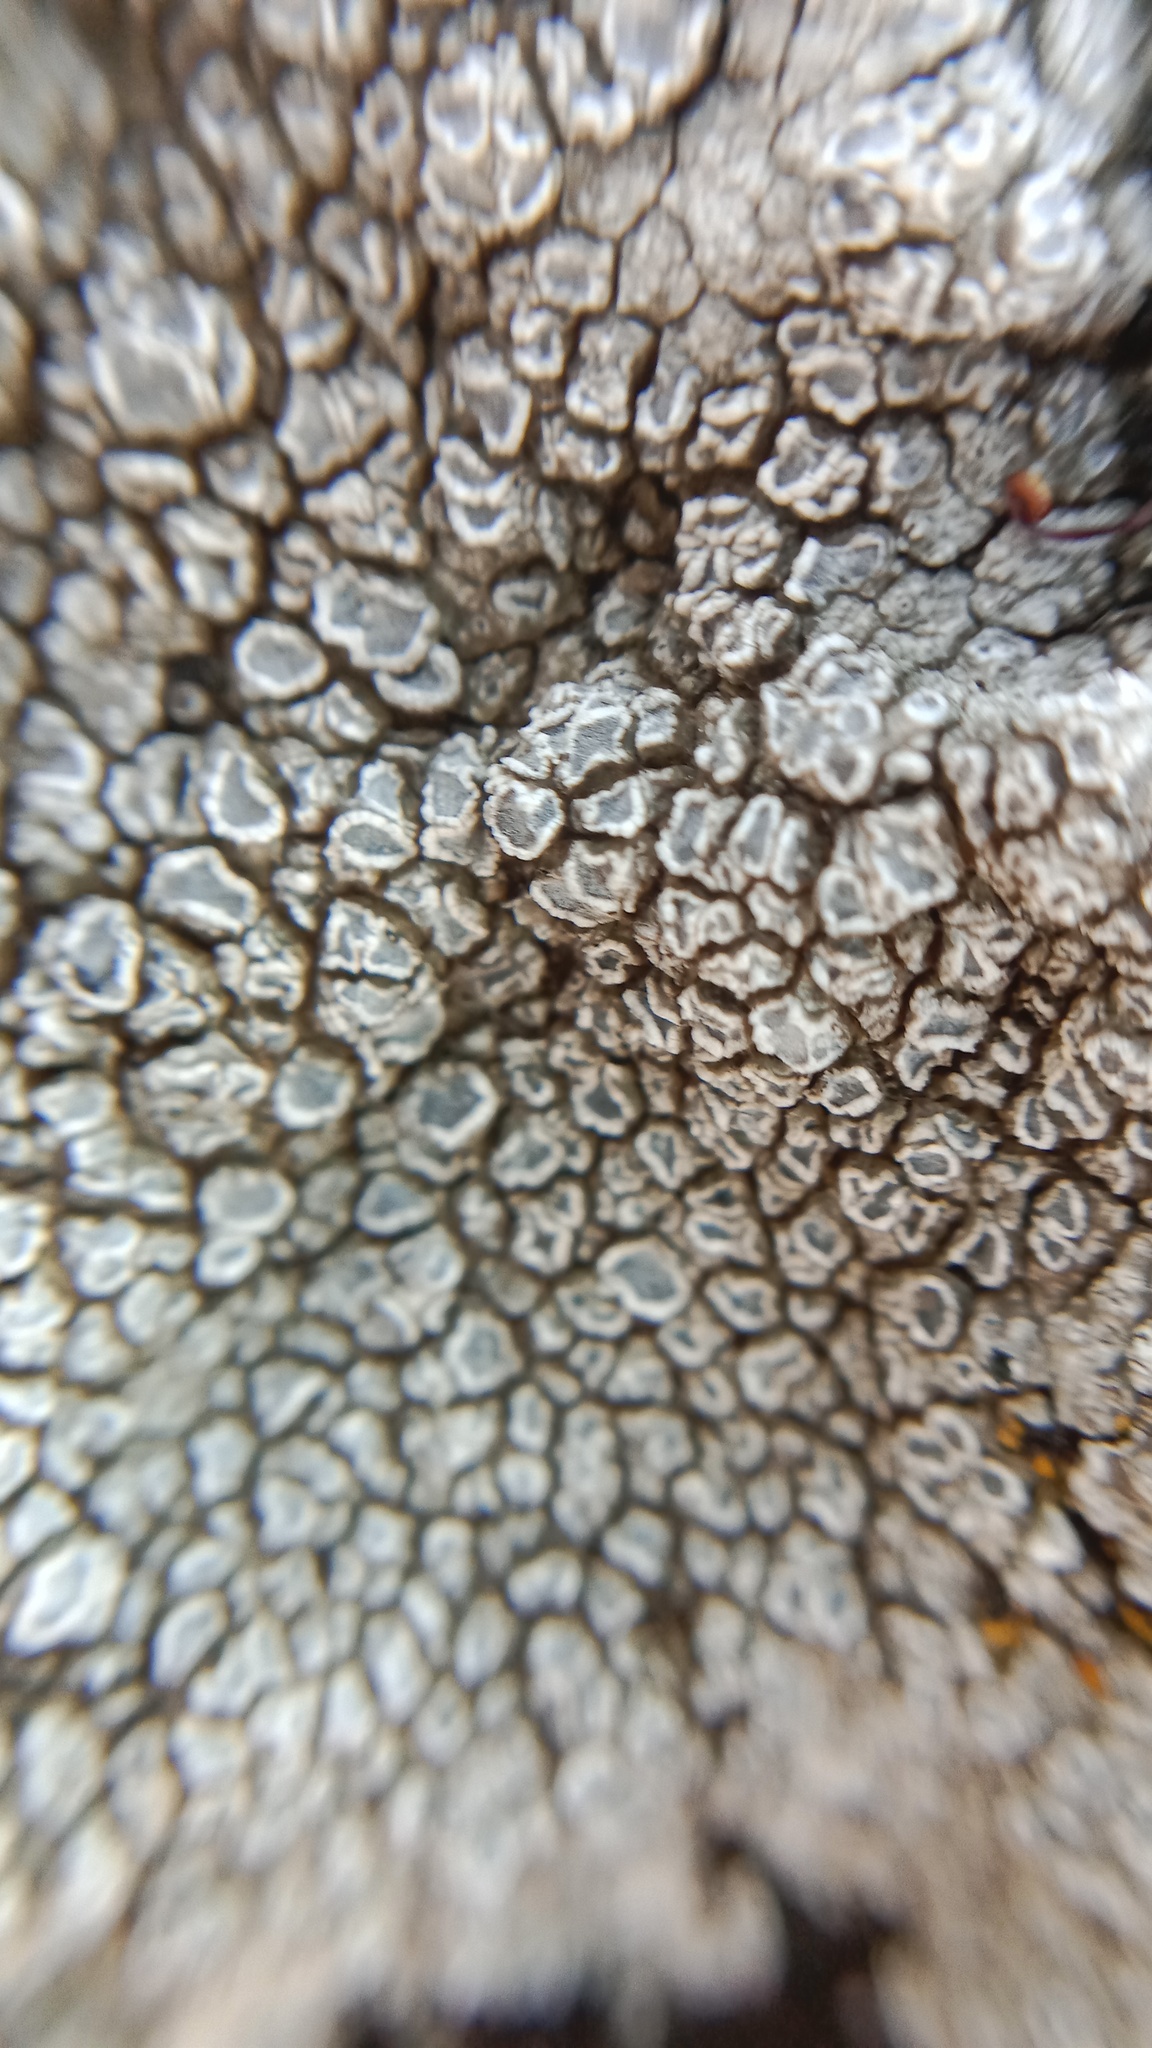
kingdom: Fungi
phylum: Ascomycota
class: Lecanoromycetes
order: Pertusariales
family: Megasporaceae
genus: Circinaria
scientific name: Circinaria calcarea
